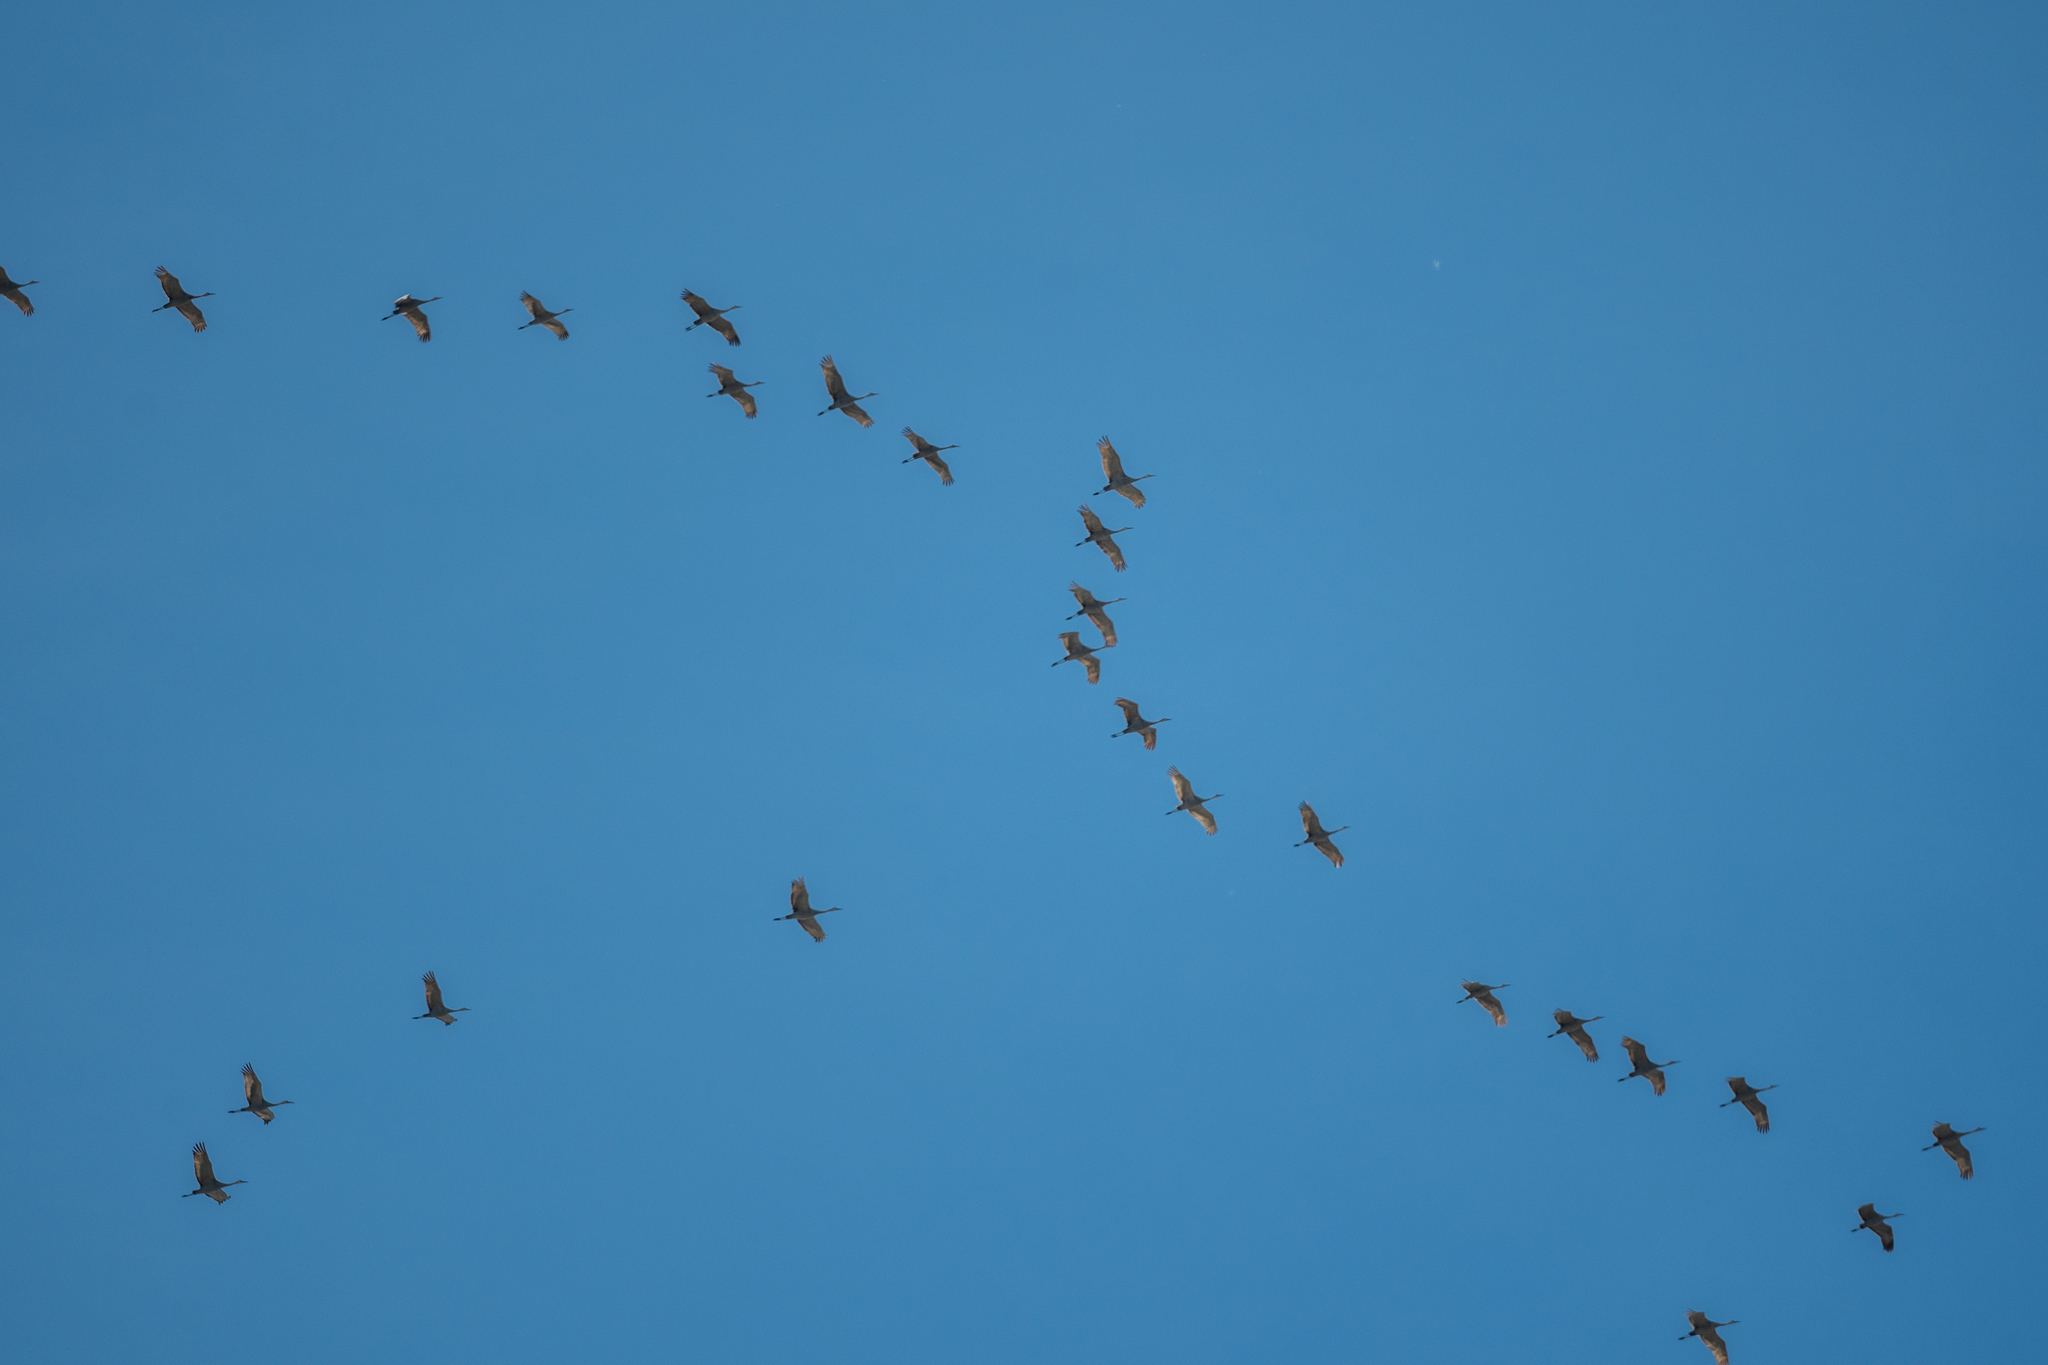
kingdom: Animalia
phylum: Chordata
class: Aves
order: Gruiformes
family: Gruidae
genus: Grus
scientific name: Grus canadensis
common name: Sandhill crane
